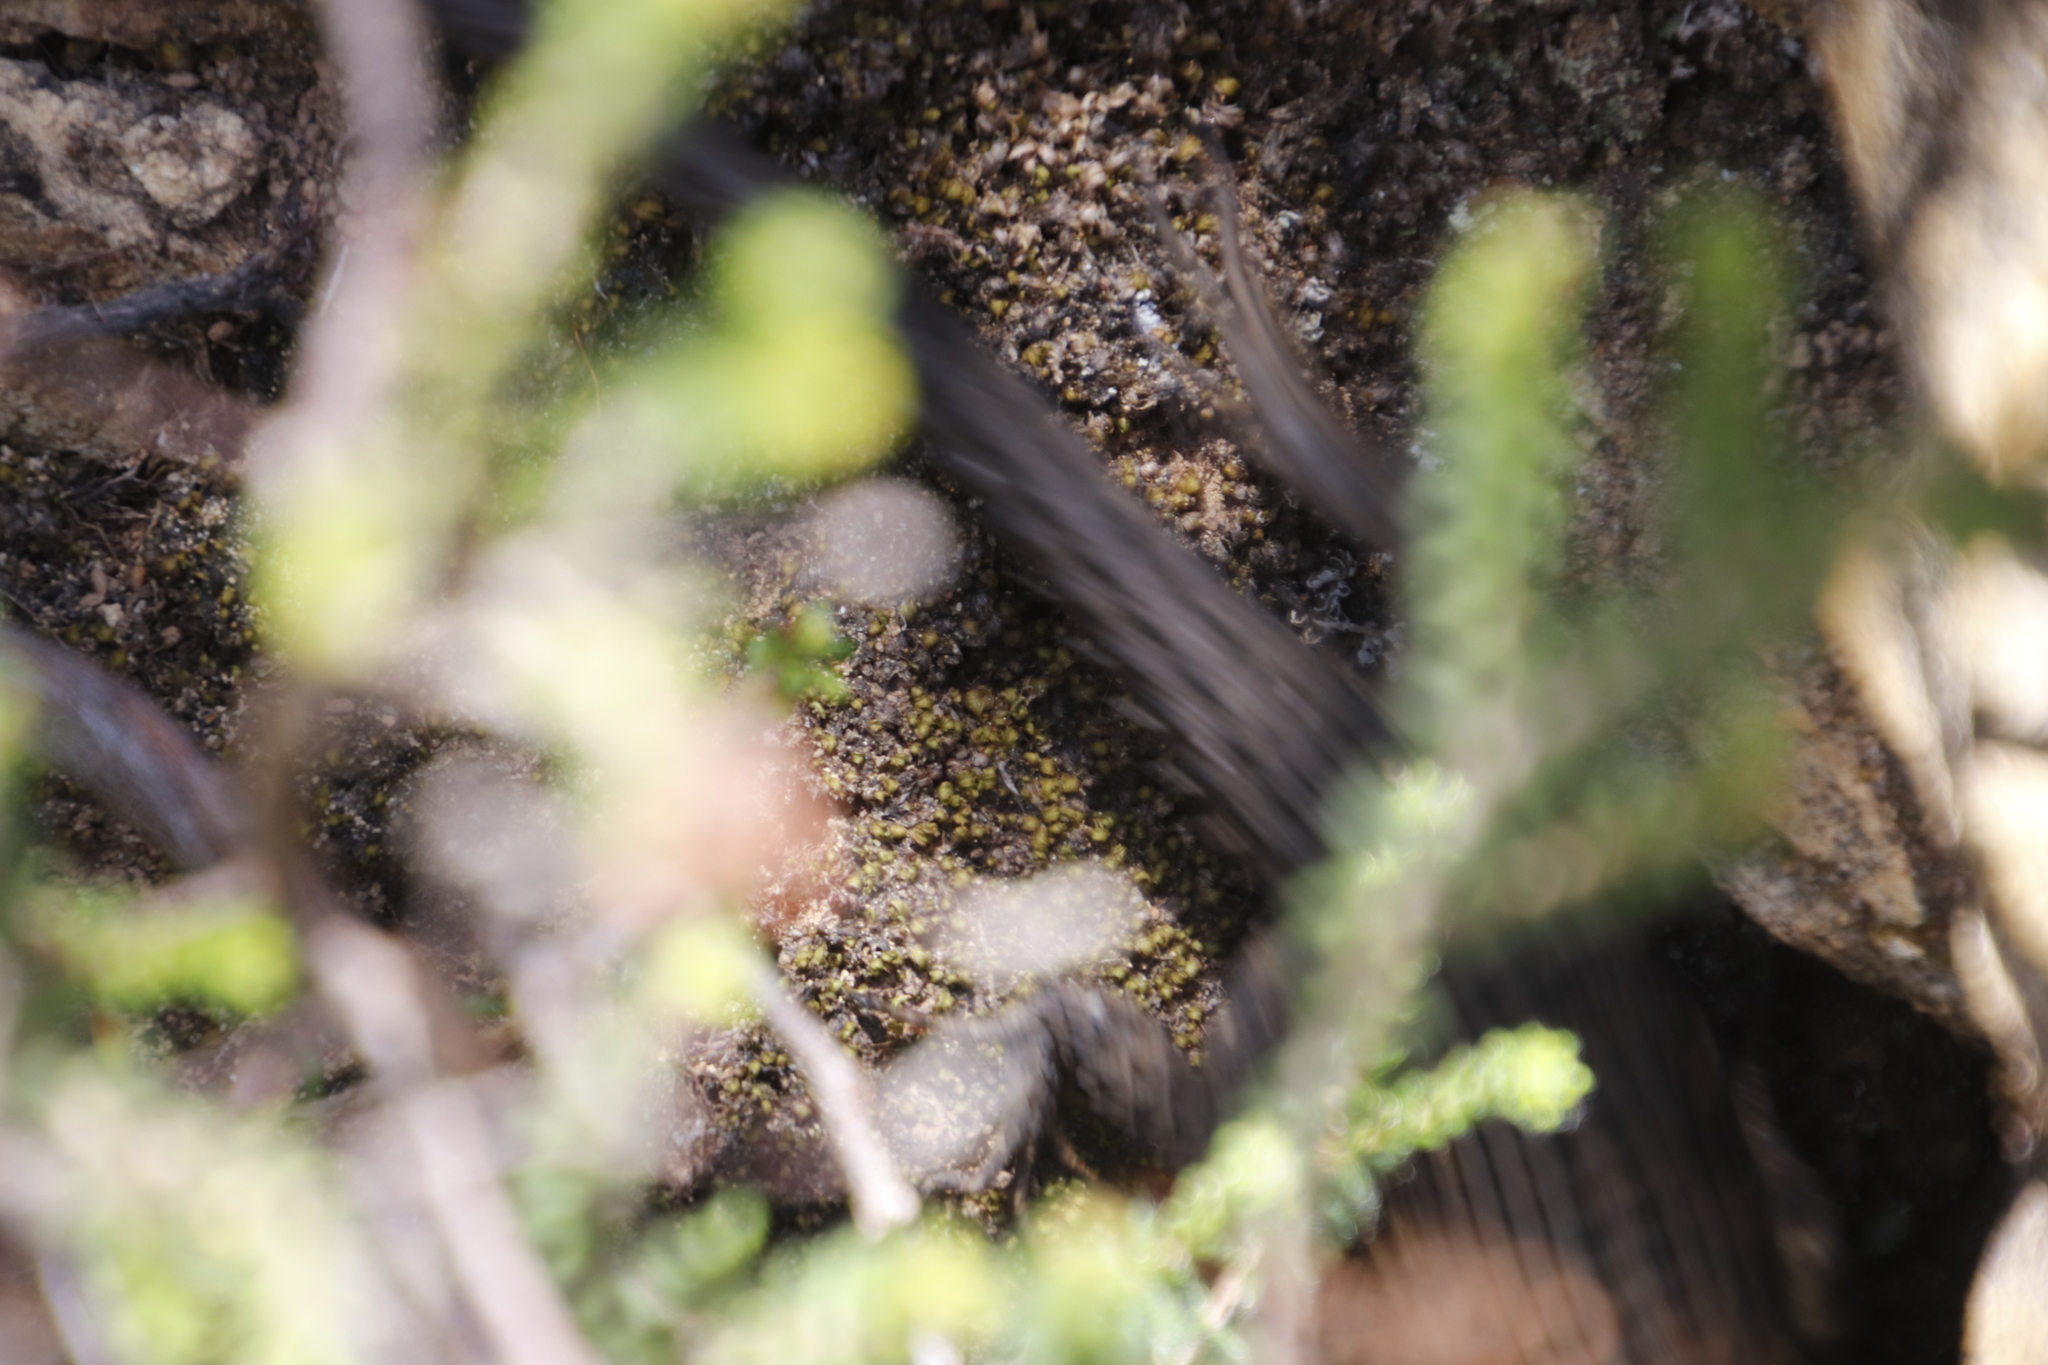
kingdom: Animalia
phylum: Chordata
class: Squamata
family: Cordylidae
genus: Cordylus
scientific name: Cordylus niger
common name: Black girdled lizard
